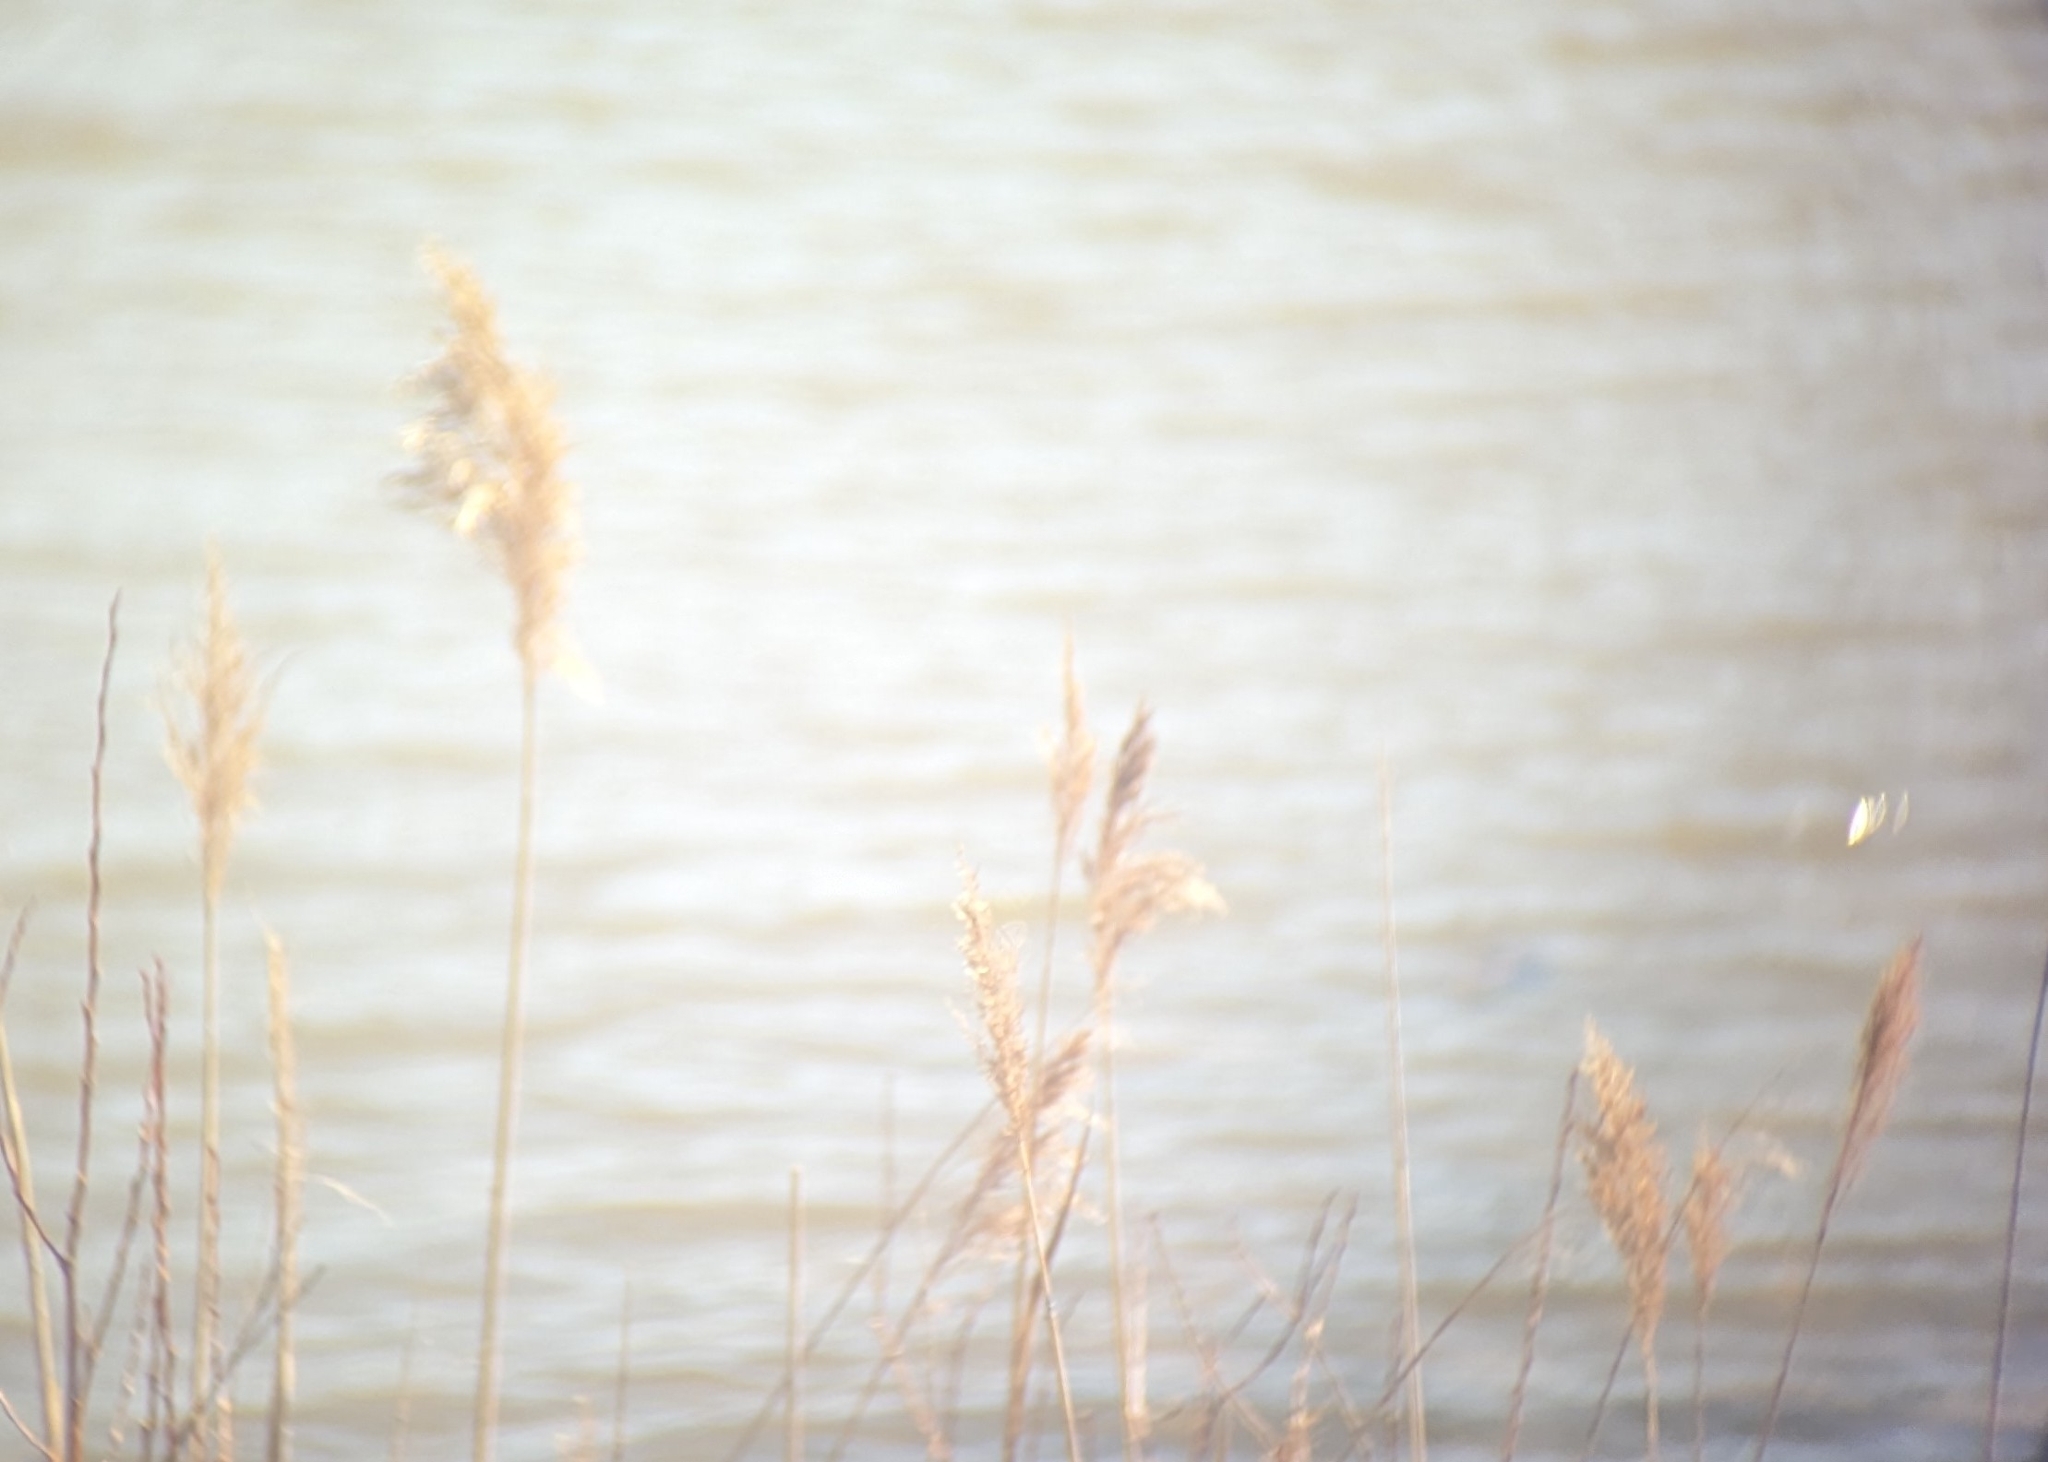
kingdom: Plantae
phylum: Tracheophyta
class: Liliopsida
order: Poales
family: Poaceae
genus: Phragmites
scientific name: Phragmites australis
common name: Common reed
